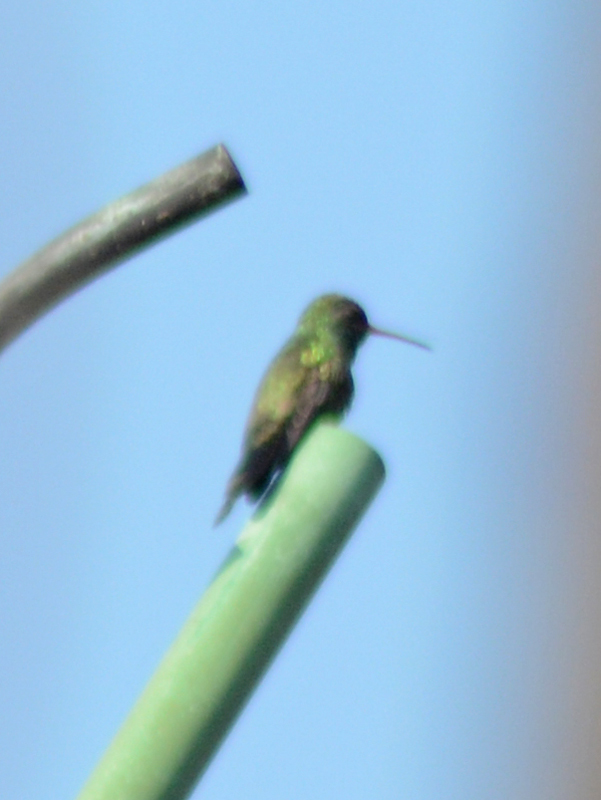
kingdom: Animalia
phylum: Chordata
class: Aves
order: Apodiformes
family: Trochilidae
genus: Cynanthus
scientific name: Cynanthus latirostris
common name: Broad-billed hummingbird
